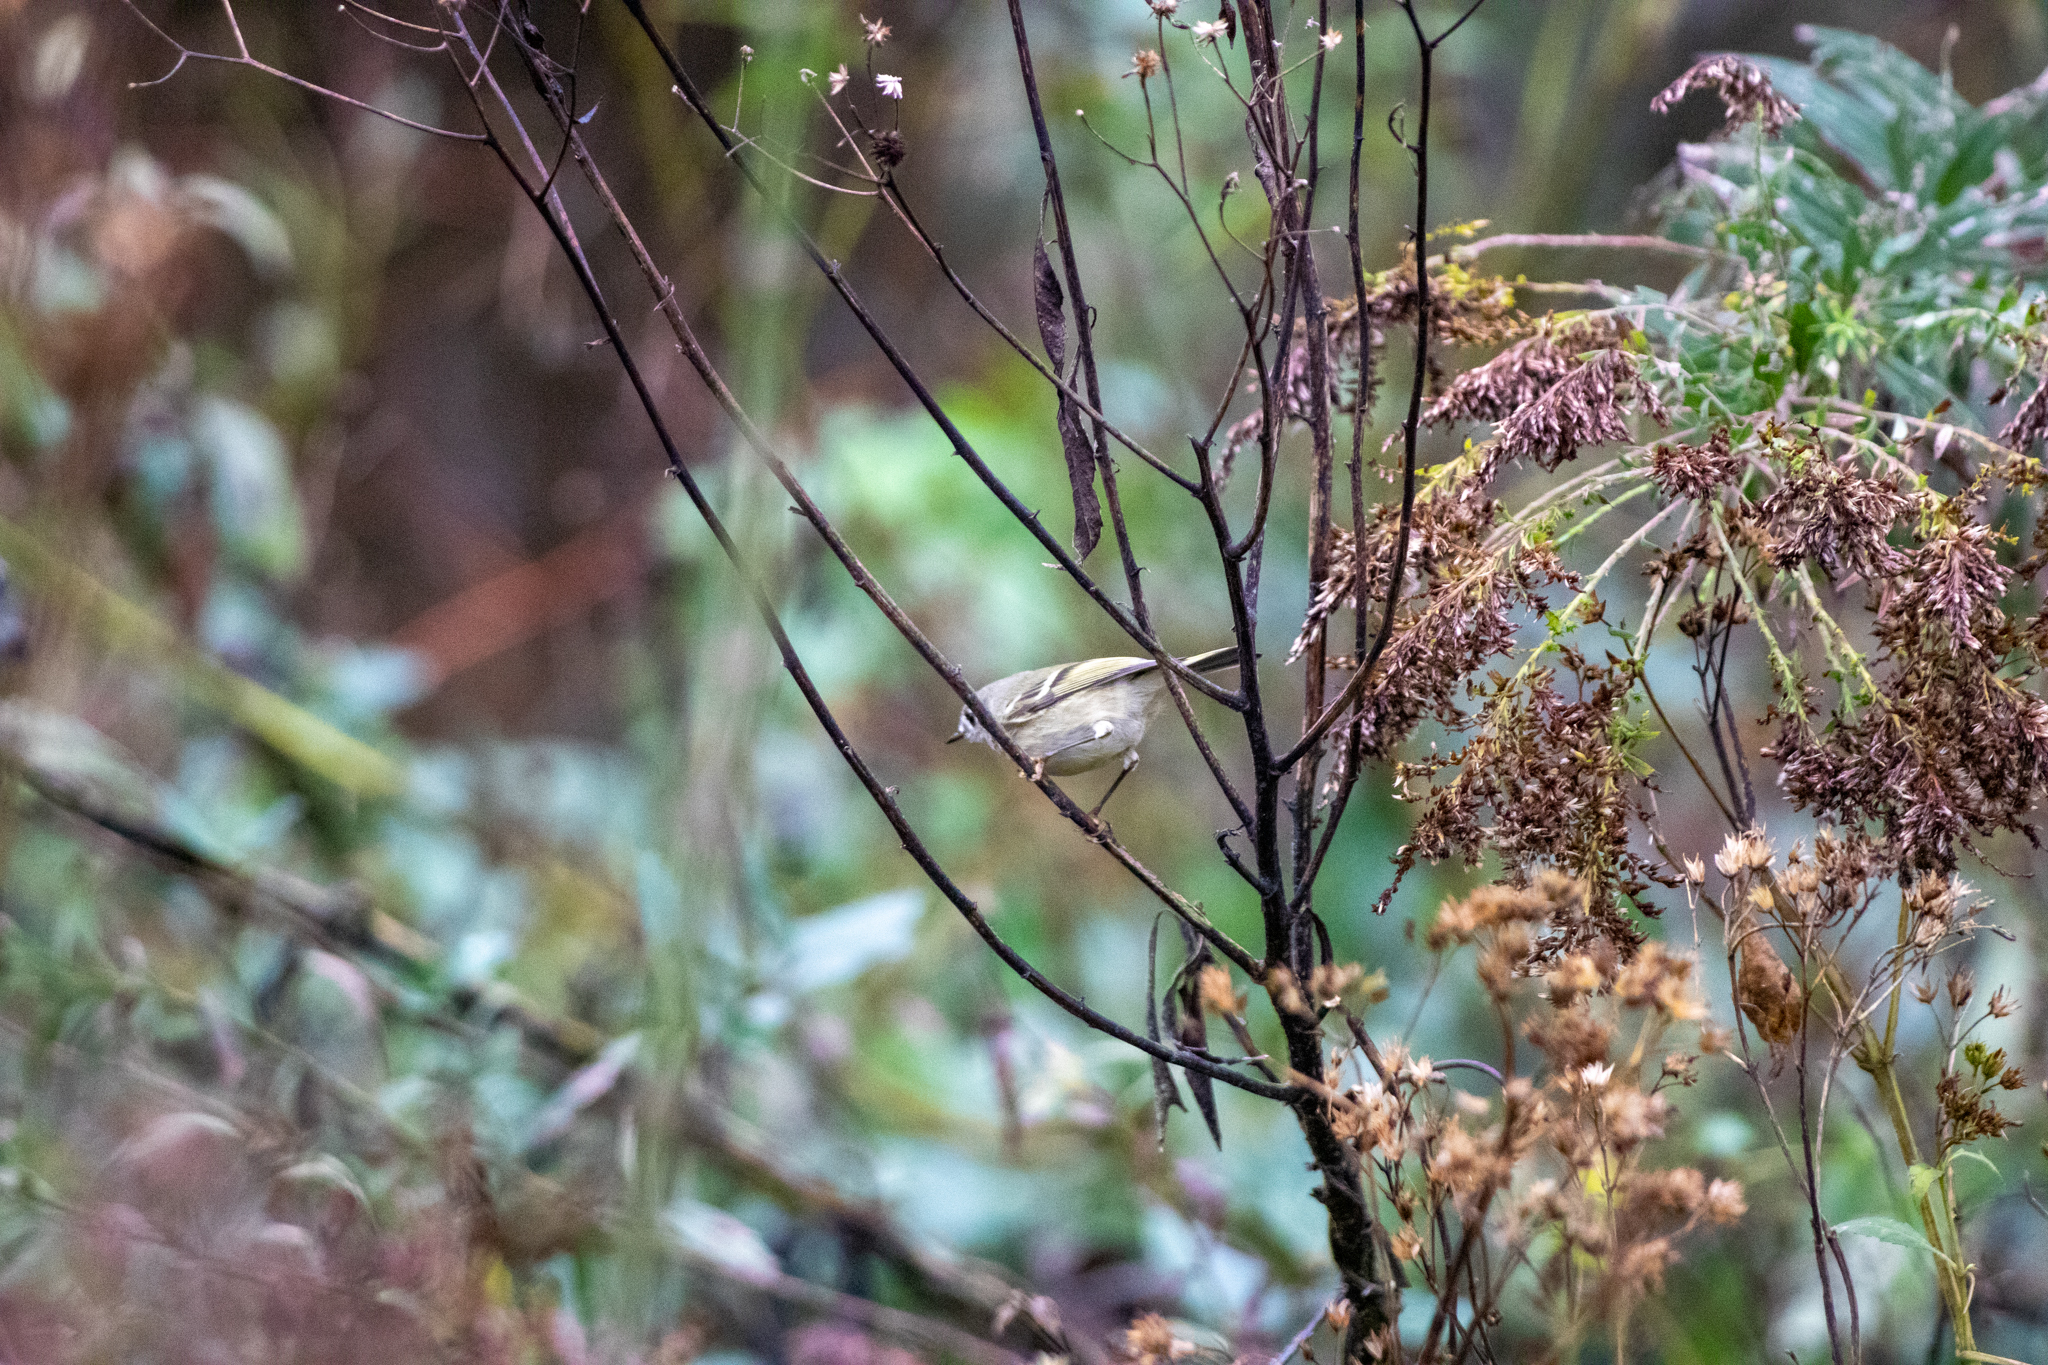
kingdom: Animalia
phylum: Chordata
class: Aves
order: Passeriformes
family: Regulidae
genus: Regulus
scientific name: Regulus calendula
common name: Ruby-crowned kinglet
